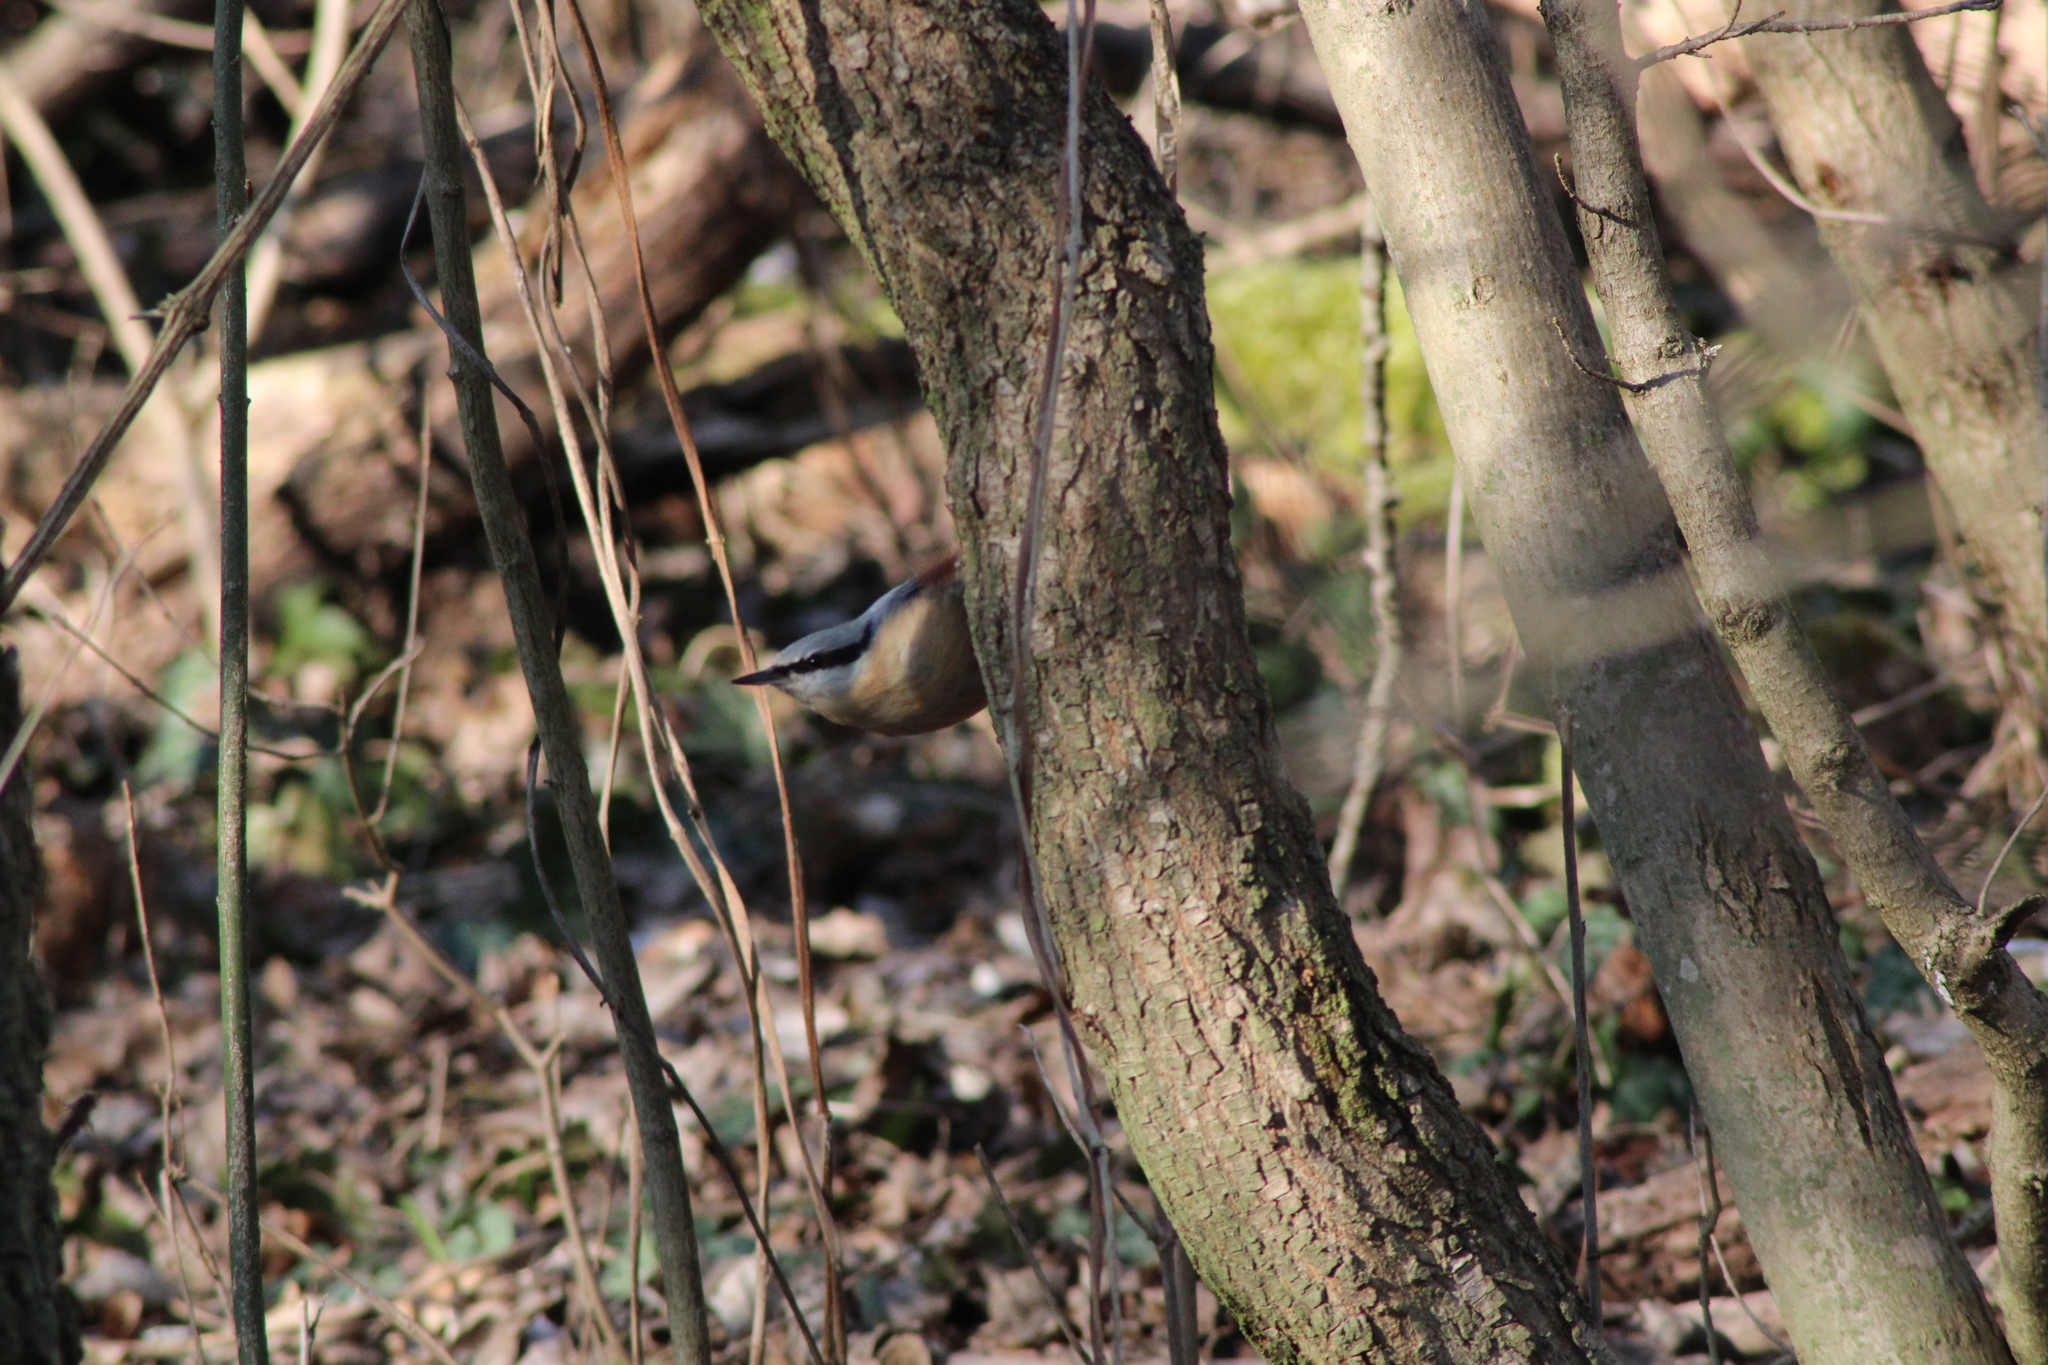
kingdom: Animalia
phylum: Chordata
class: Aves
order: Passeriformes
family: Sittidae
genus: Sitta
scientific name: Sitta europaea
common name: Eurasian nuthatch
